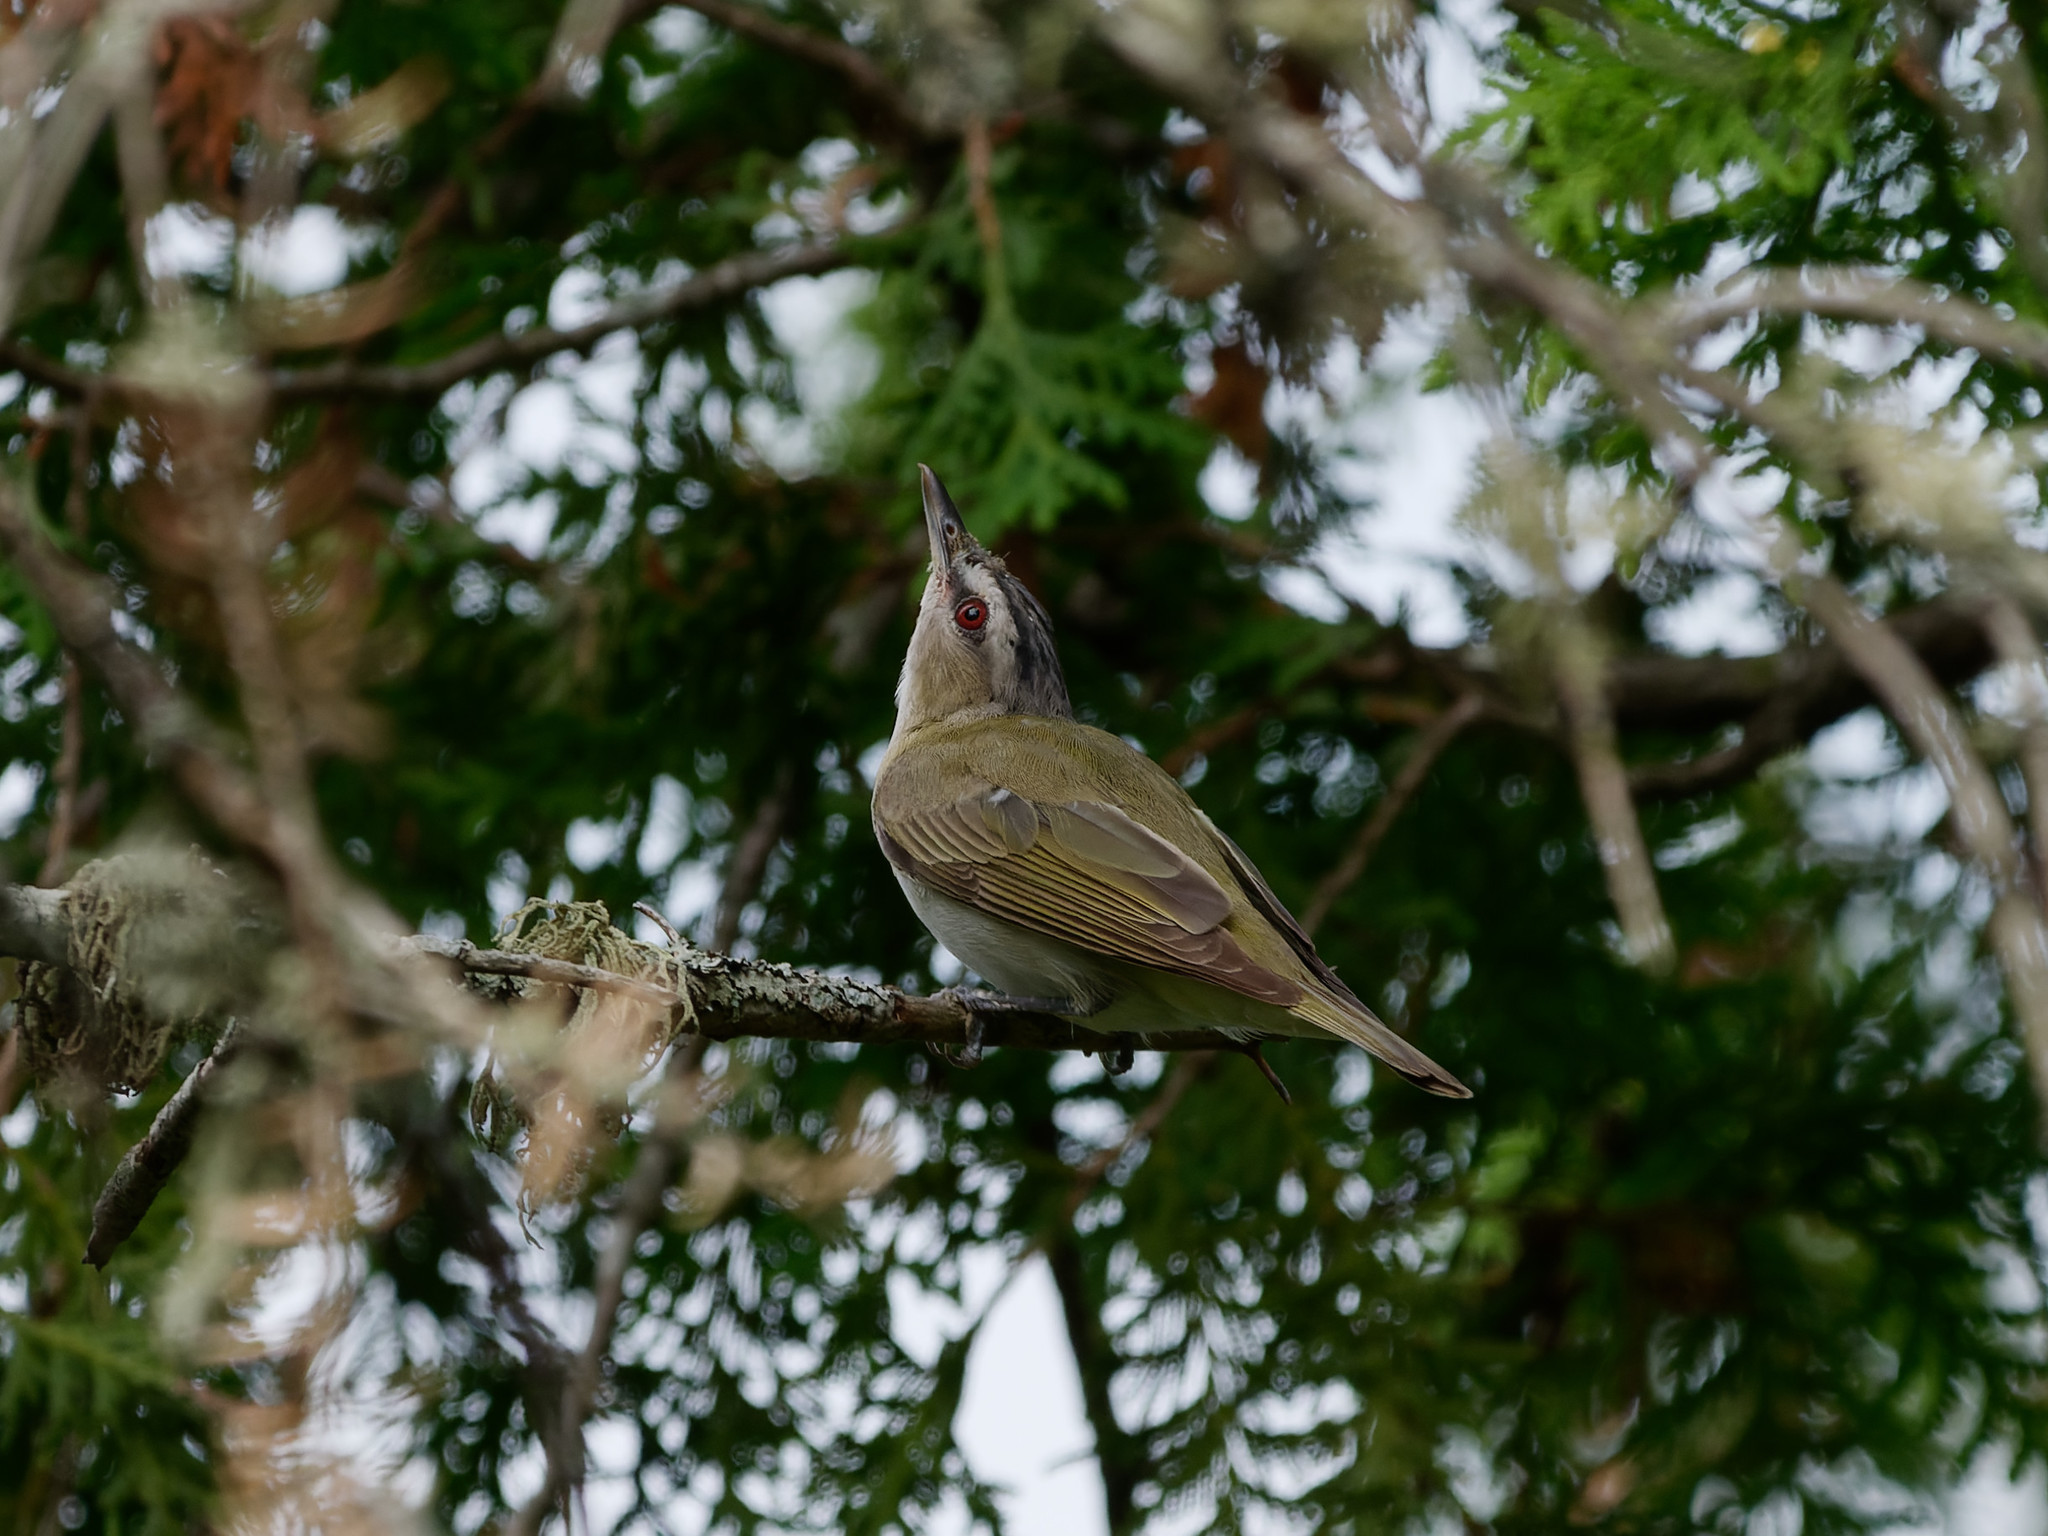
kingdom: Animalia
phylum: Chordata
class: Aves
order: Passeriformes
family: Vireonidae
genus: Vireo
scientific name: Vireo olivaceus
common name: Red-eyed vireo
